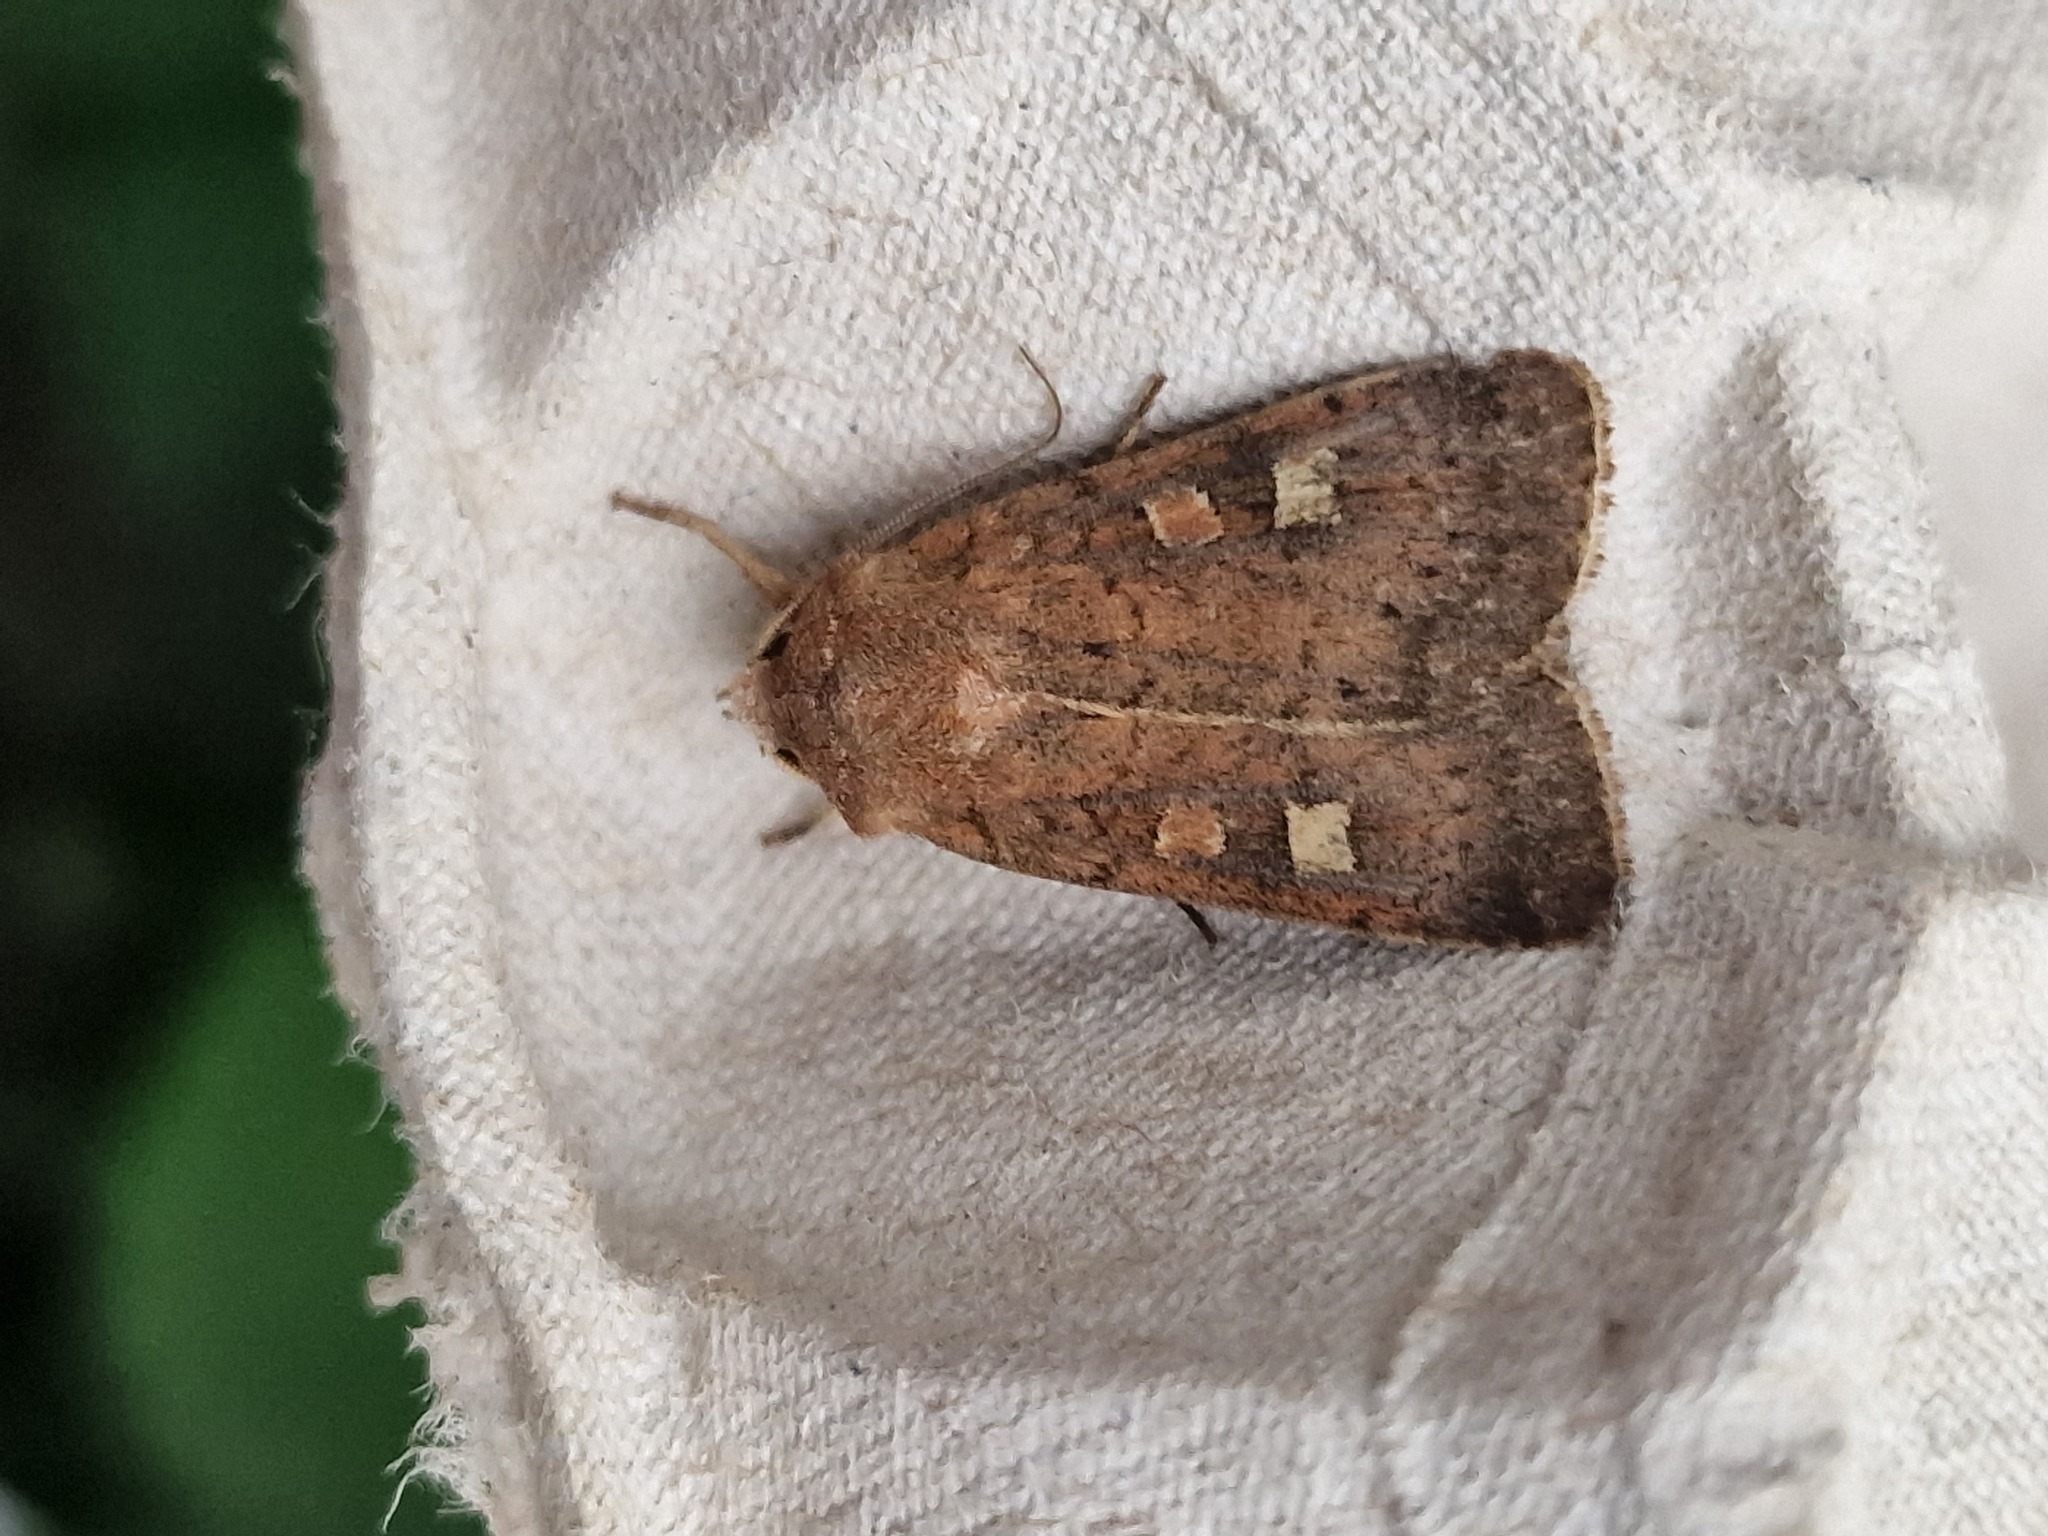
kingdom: Animalia
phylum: Arthropoda
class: Insecta
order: Lepidoptera
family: Noctuidae
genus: Xestia
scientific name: Xestia xanthographa
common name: Square-spot rustic
